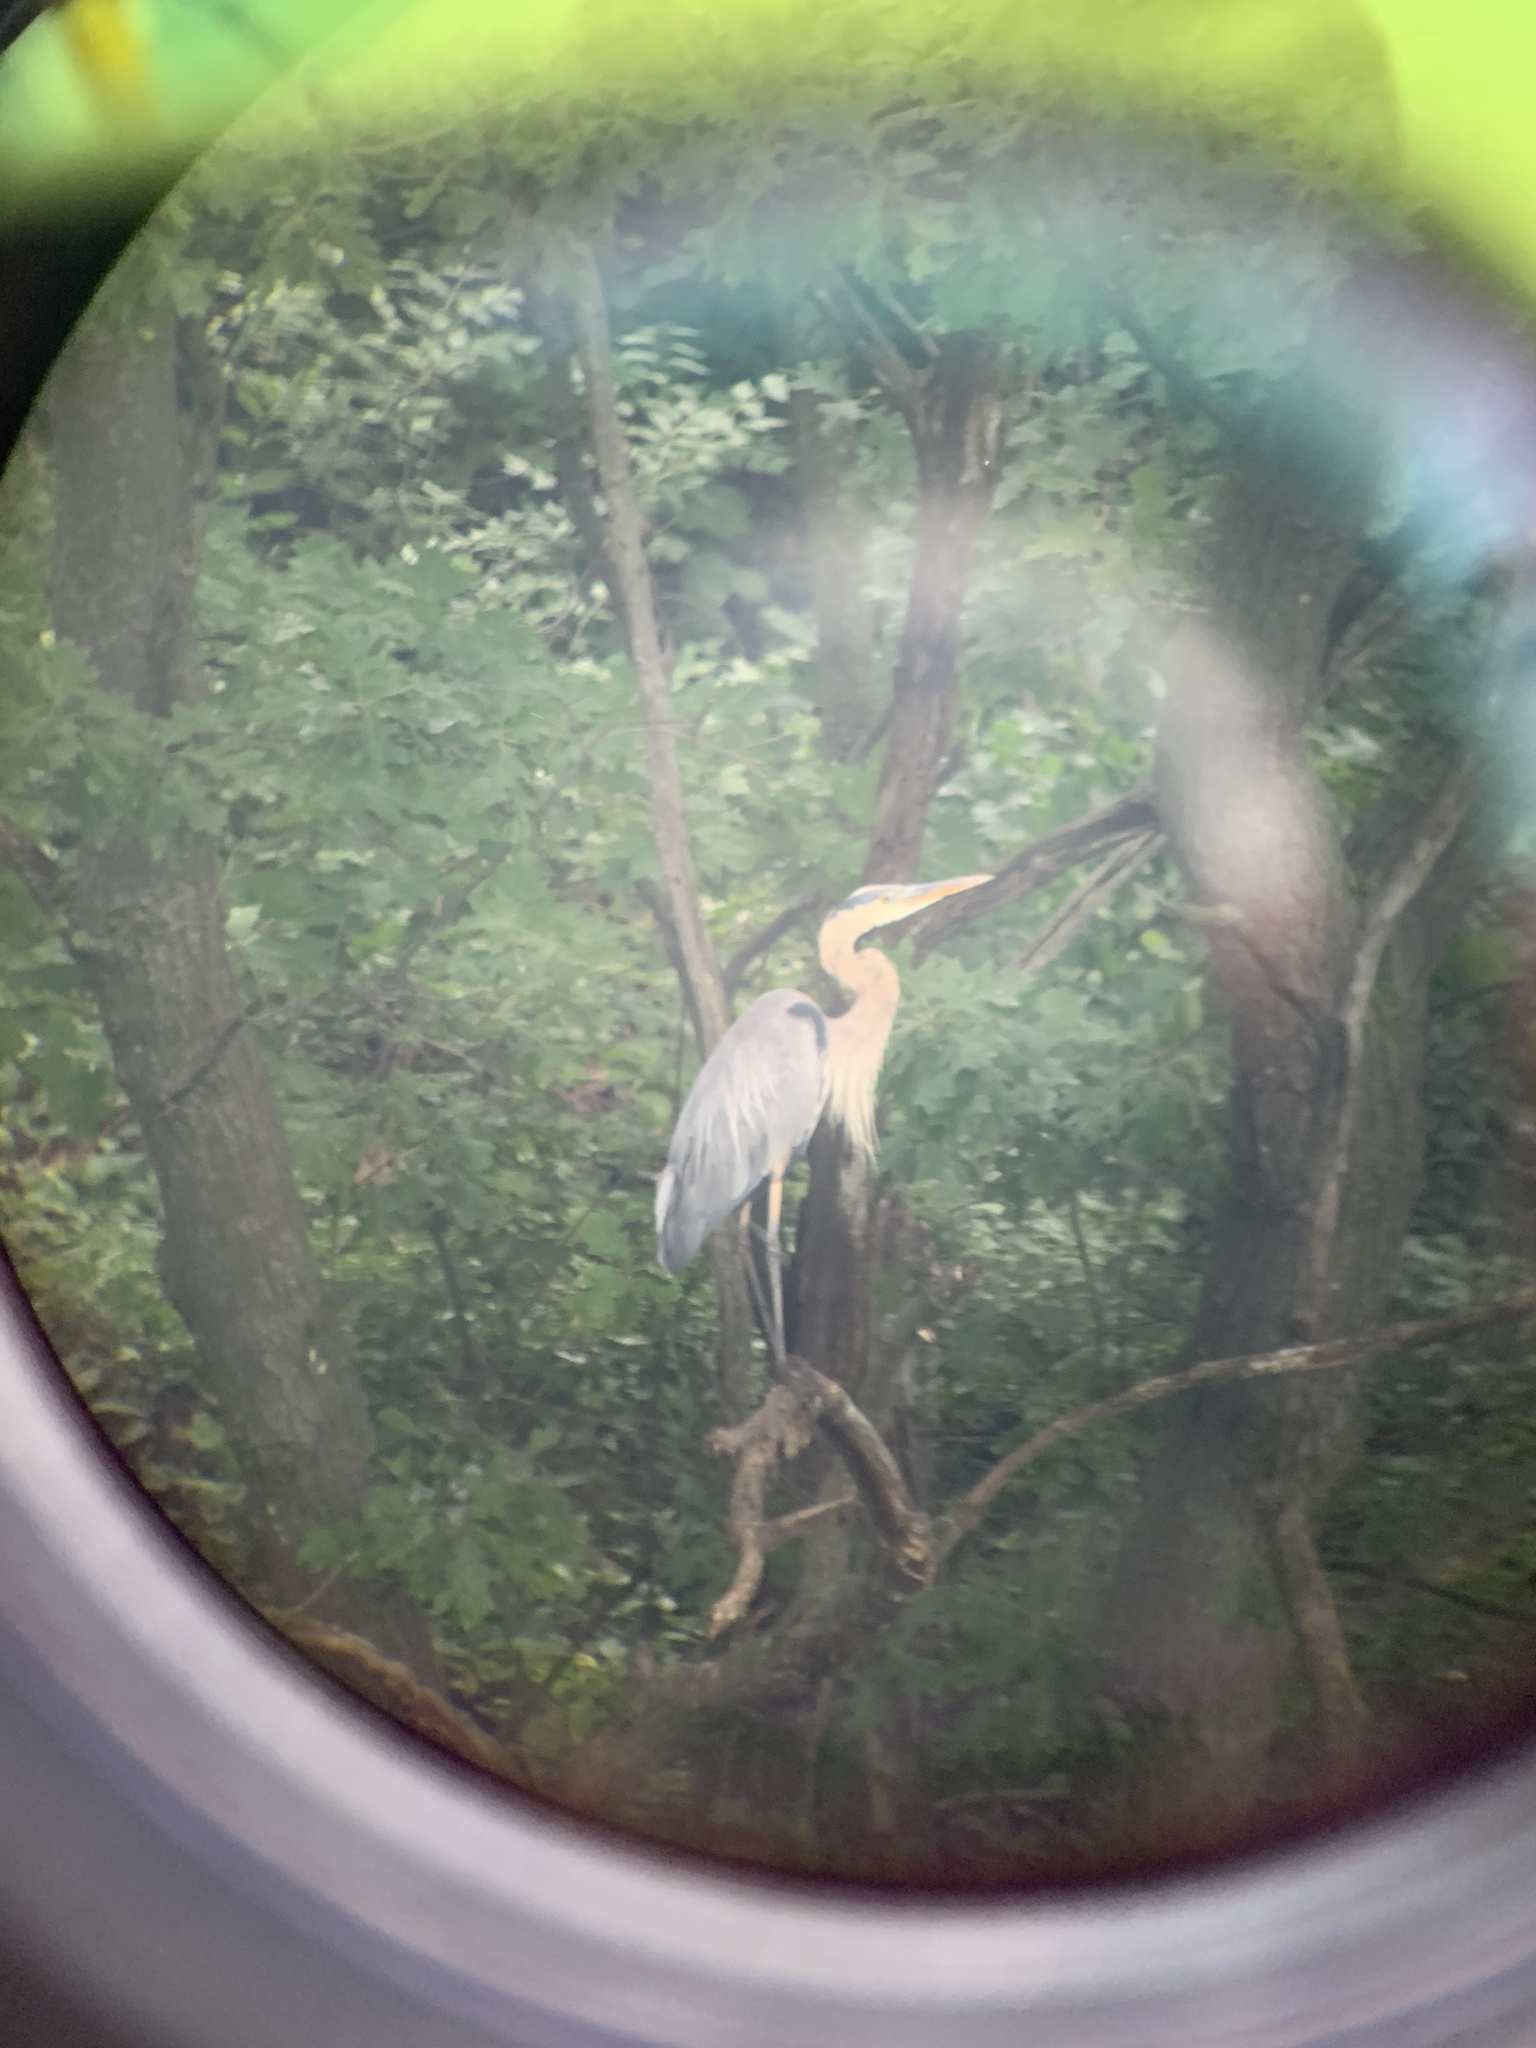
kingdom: Animalia
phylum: Chordata
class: Aves
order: Pelecaniformes
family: Ardeidae
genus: Ardea
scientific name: Ardea herodias
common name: Great blue heron
